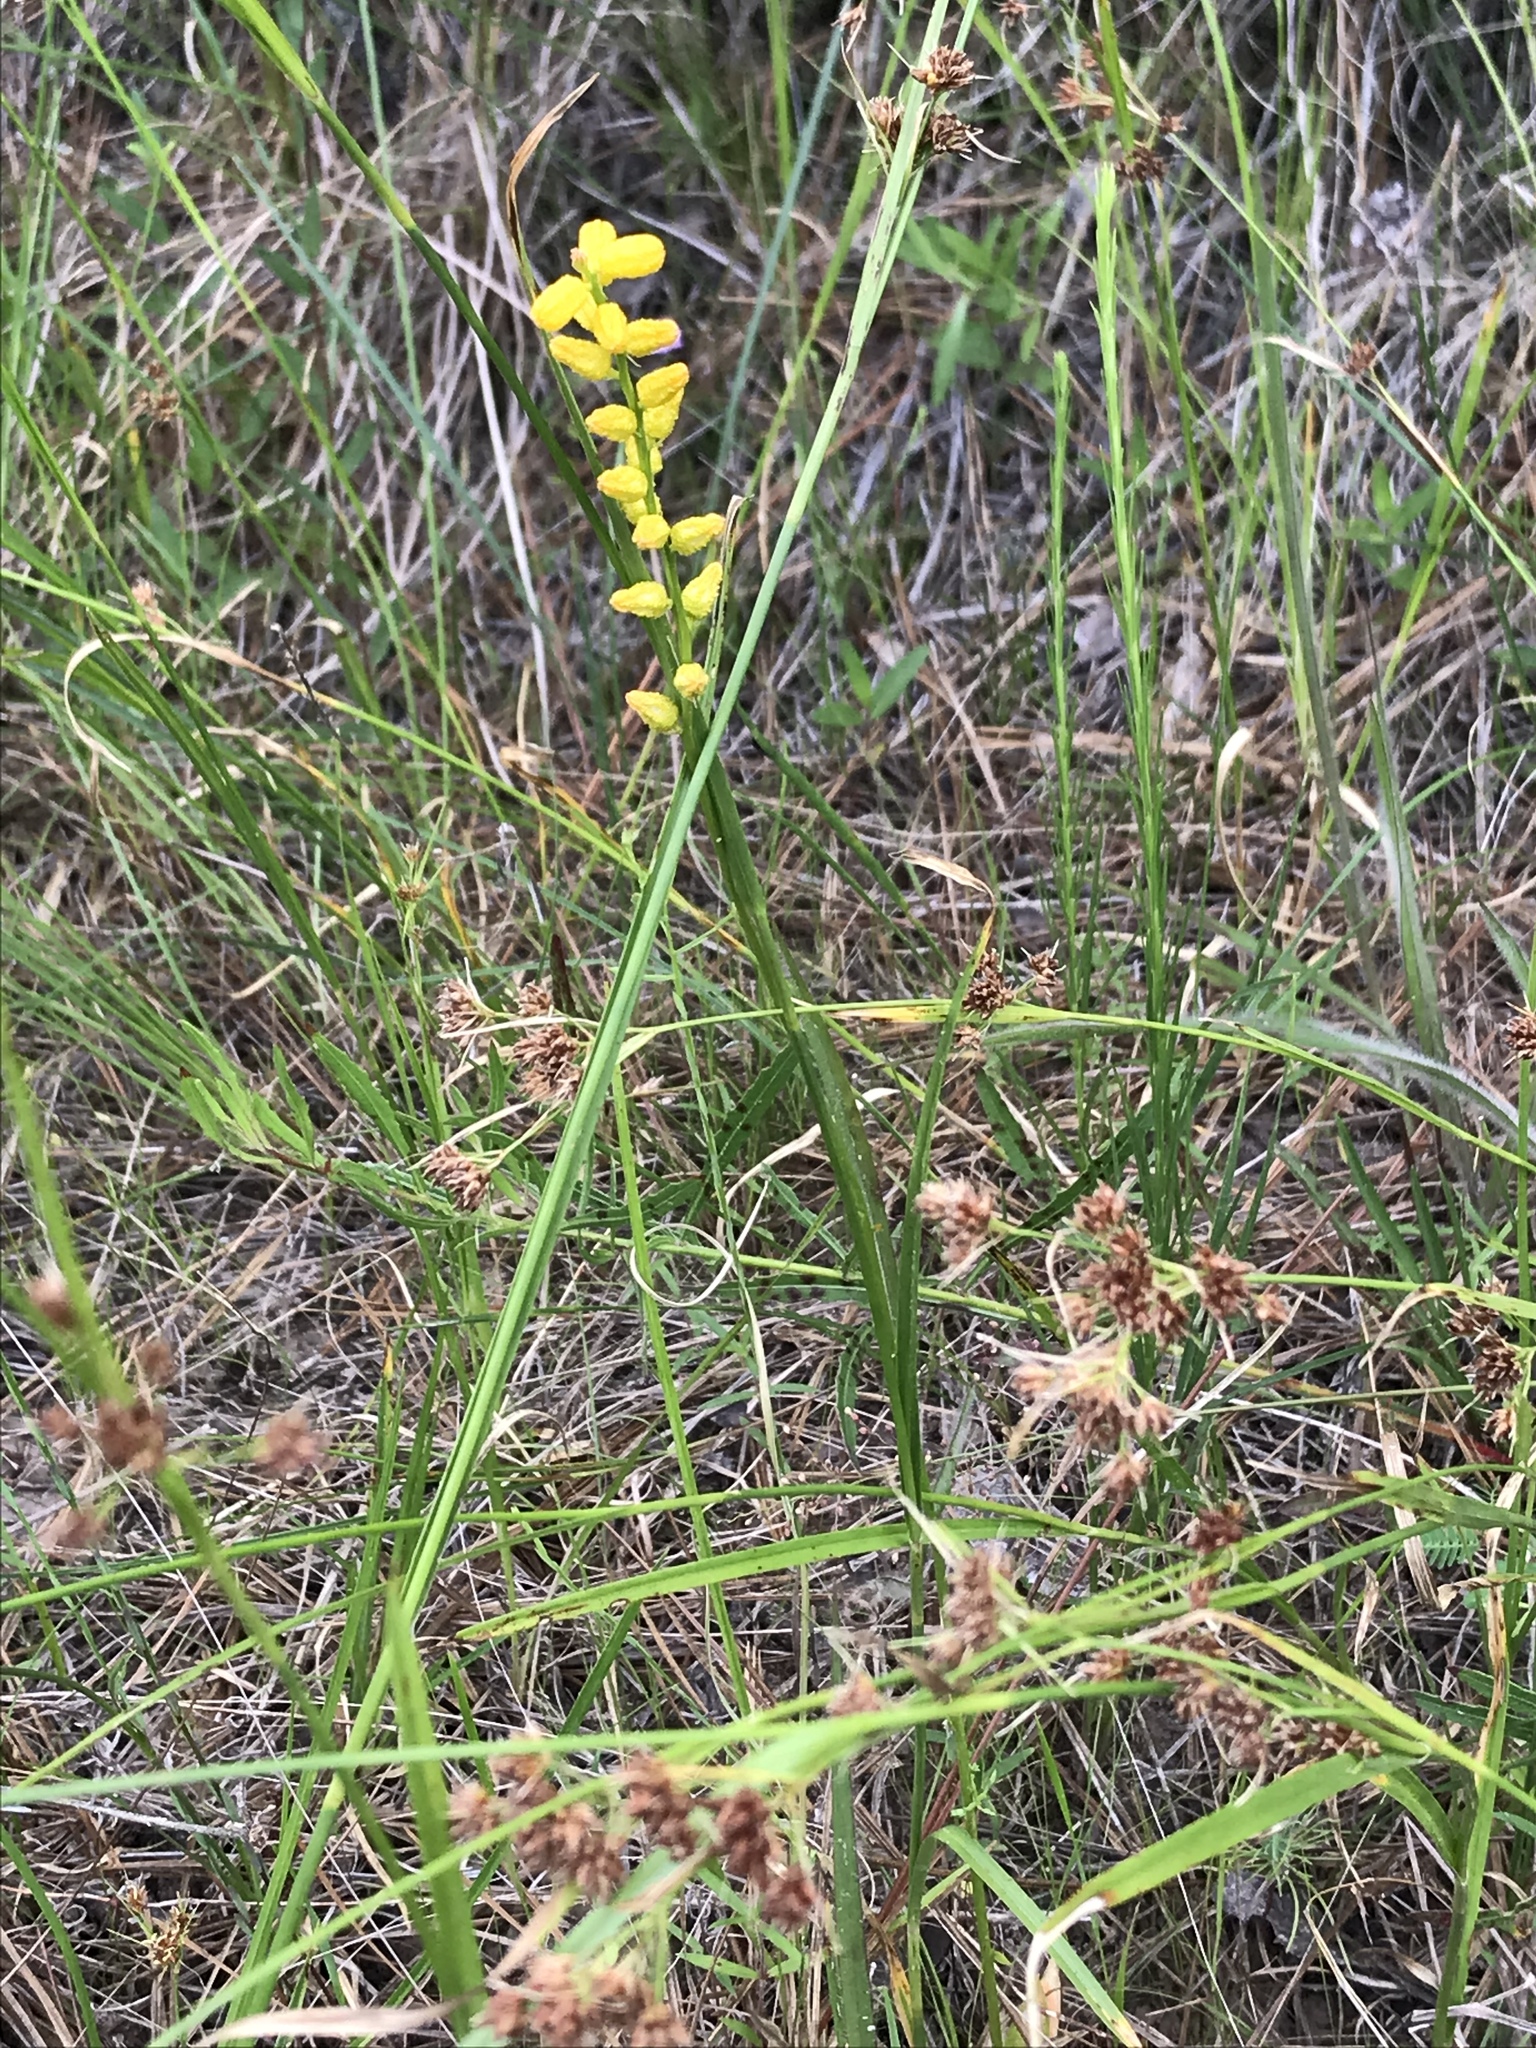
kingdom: Plantae
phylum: Tracheophyta
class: Liliopsida
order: Dioscoreales
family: Nartheciaceae
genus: Aletris
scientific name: Aletris aurea
